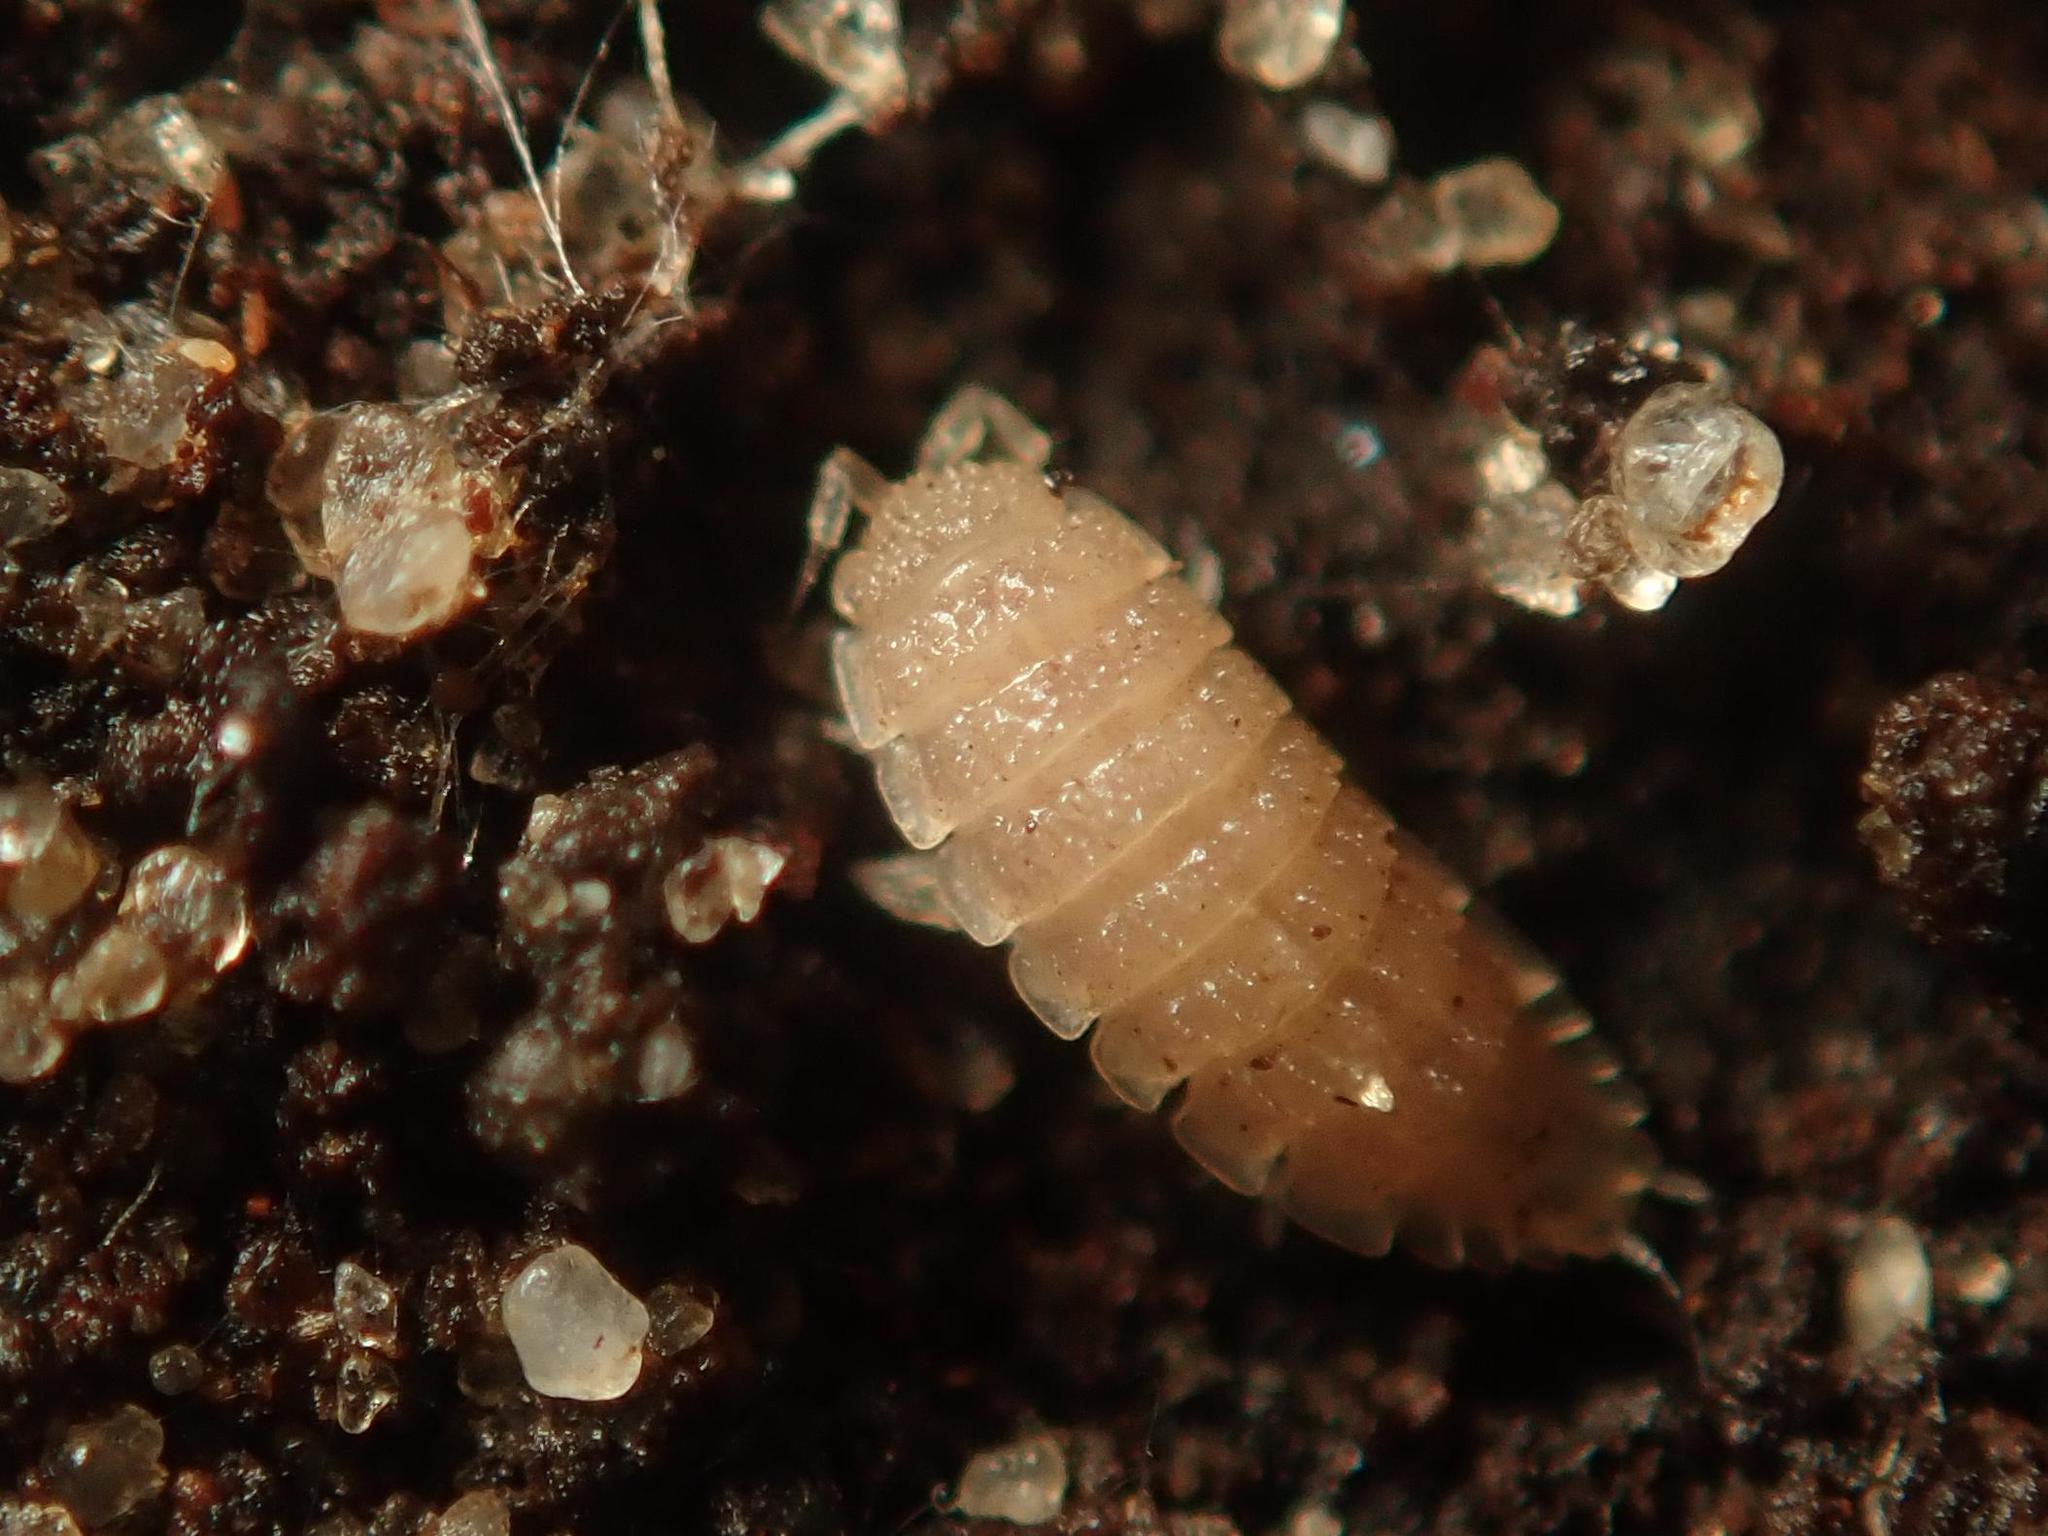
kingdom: Animalia
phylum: Arthropoda
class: Malacostraca
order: Isopoda
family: Trichoniscidae
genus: Haplophthalmus
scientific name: Haplophthalmus danicus
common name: Pillbug
